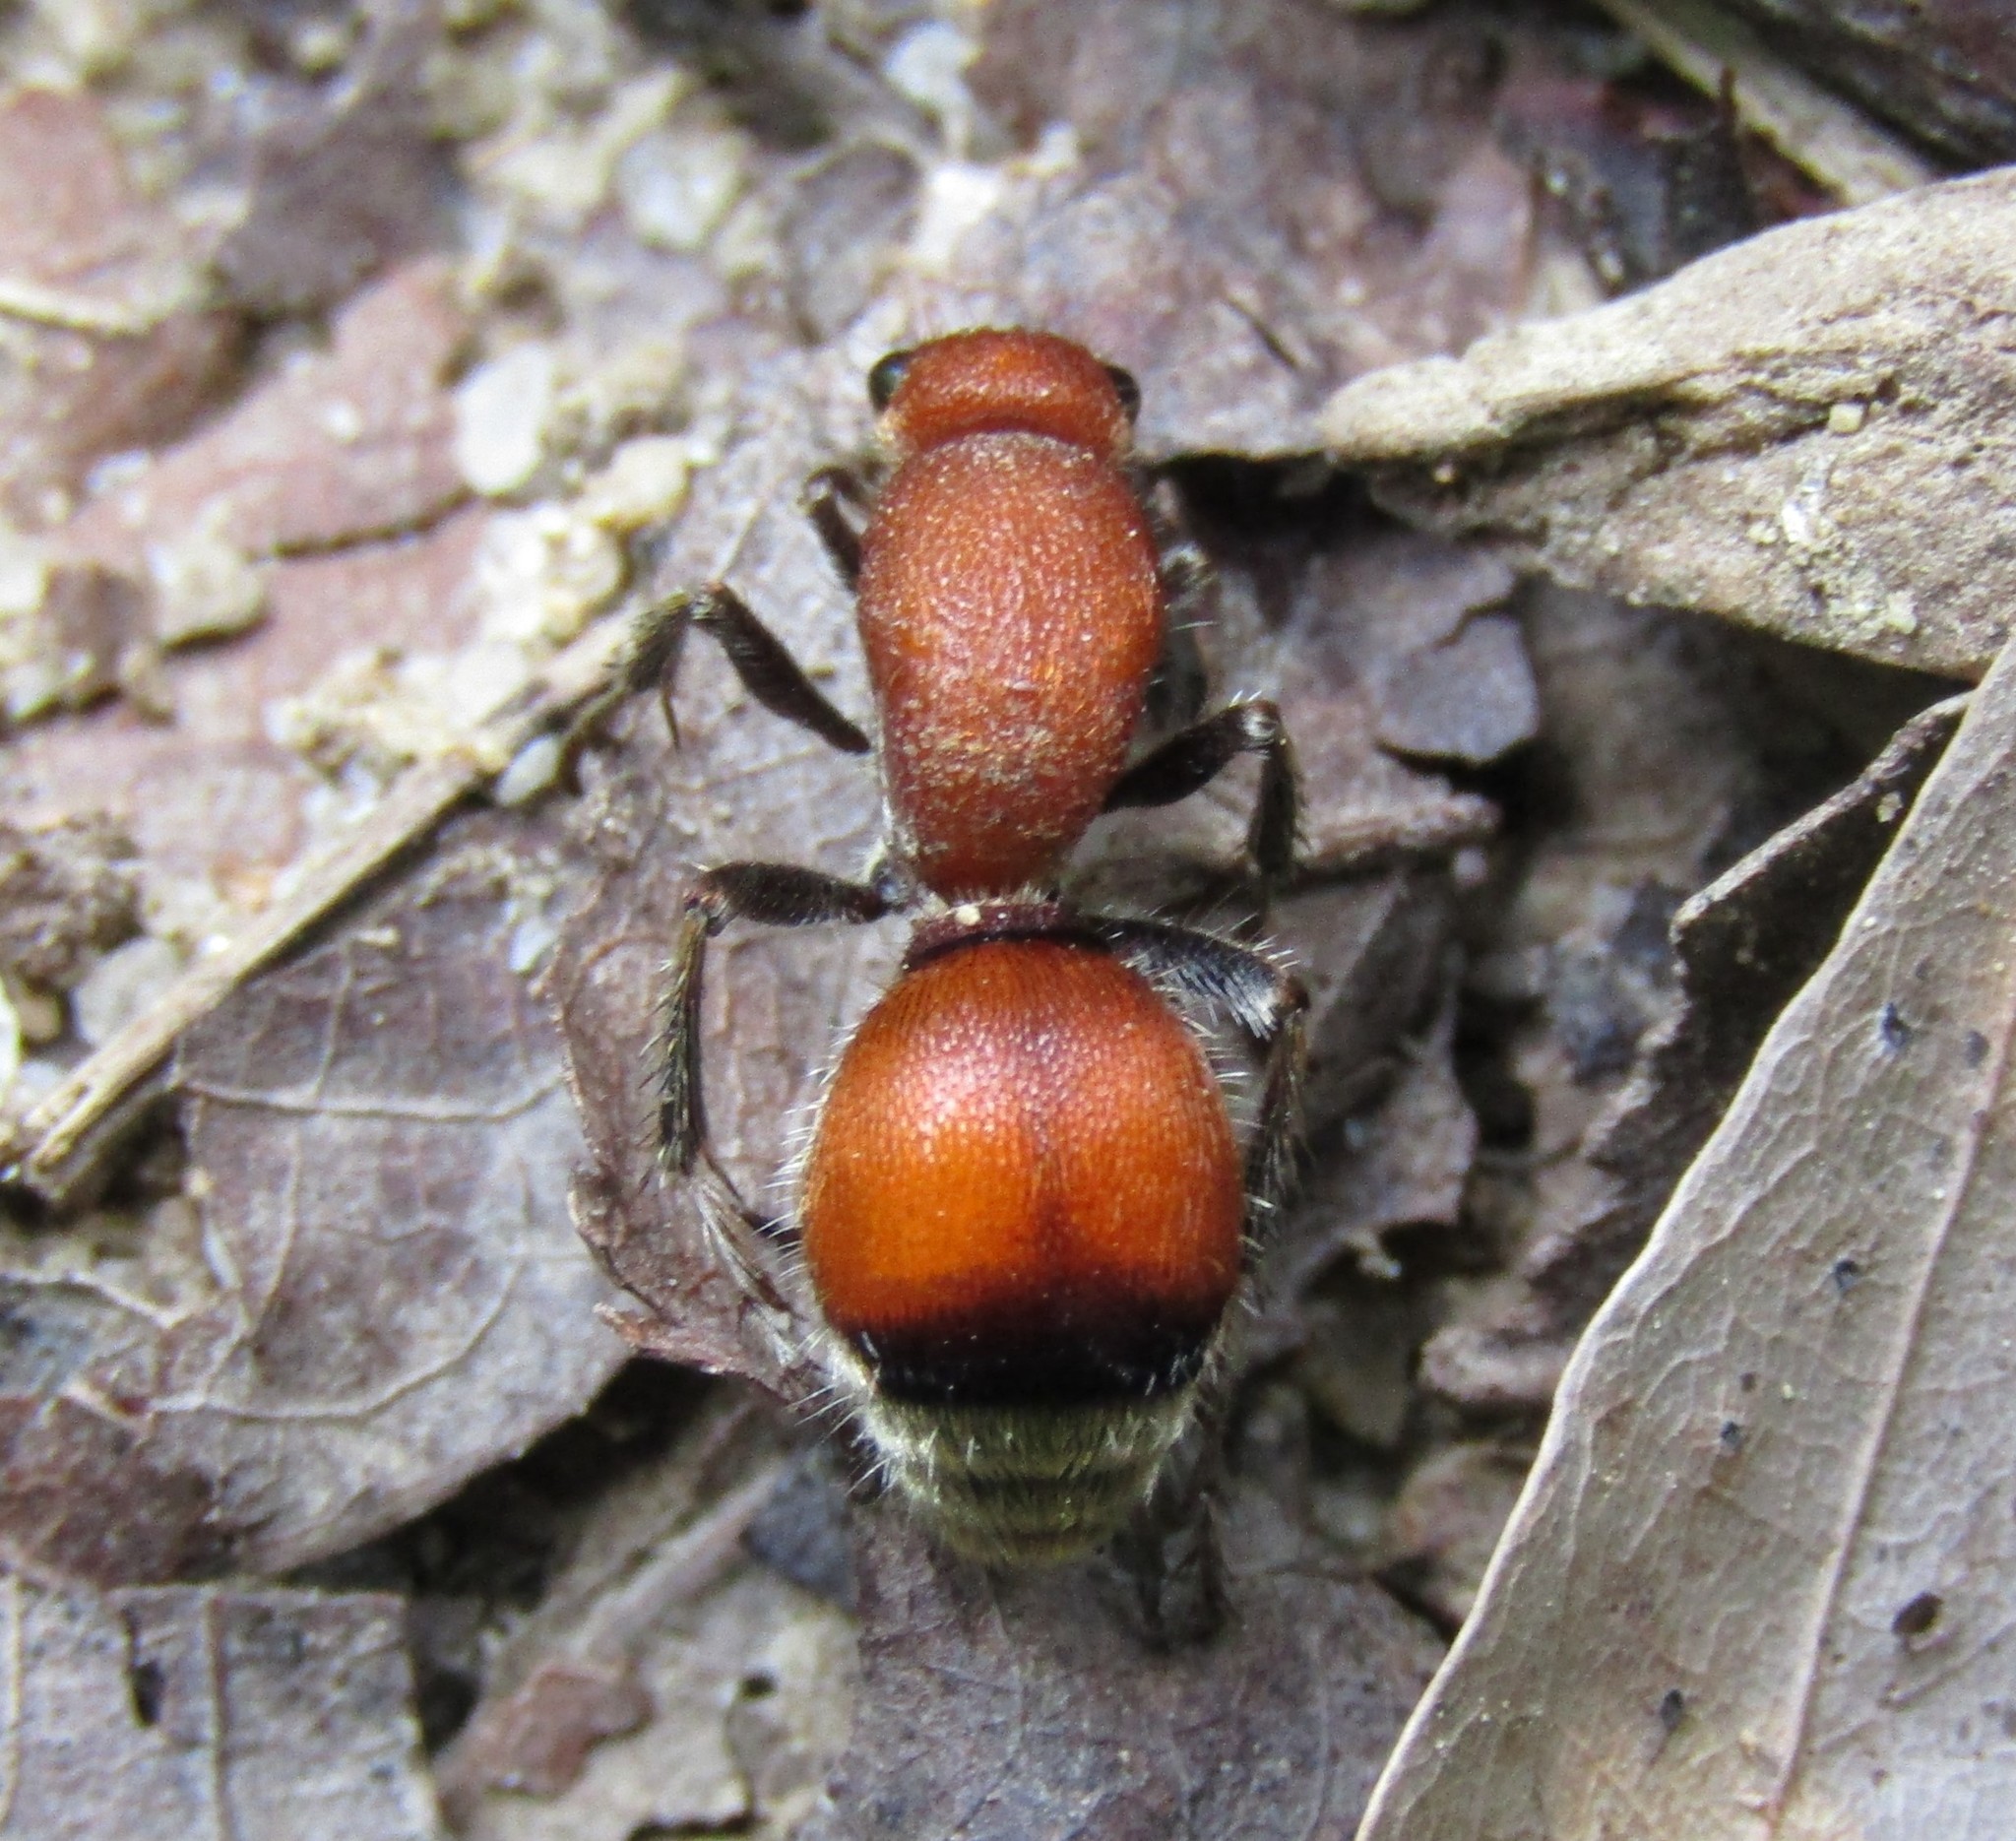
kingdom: Animalia
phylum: Arthropoda
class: Insecta
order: Hymenoptera
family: Mutillidae
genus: Dasymutilla
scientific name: Dasymutilla
